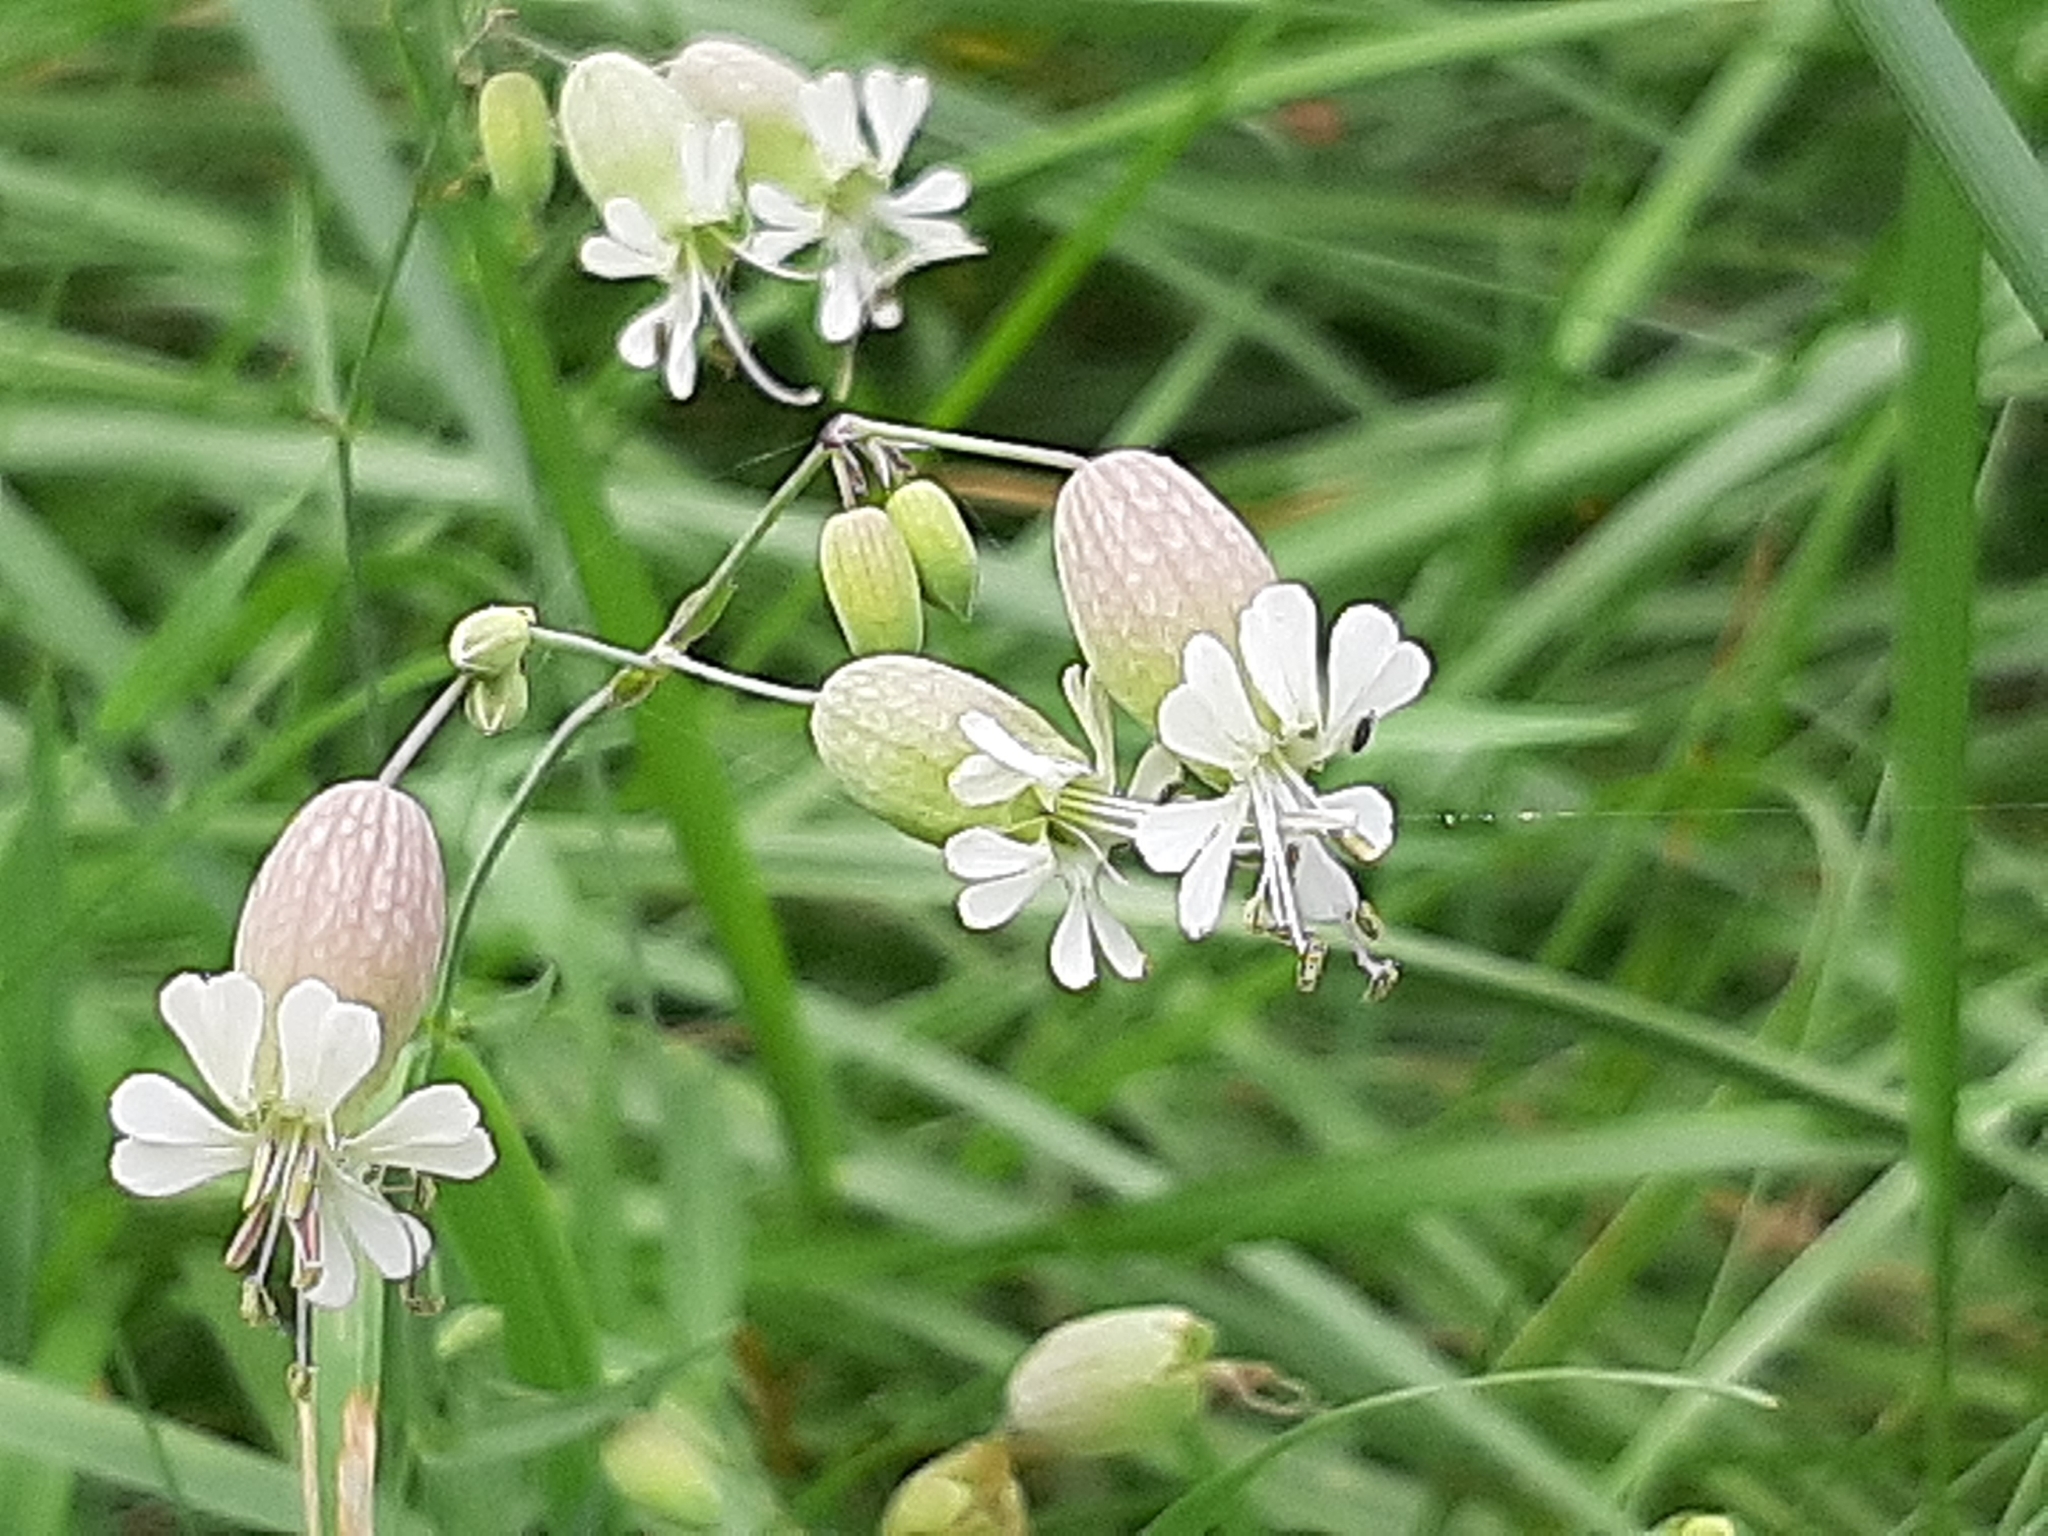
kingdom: Plantae
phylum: Tracheophyta
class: Magnoliopsida
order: Caryophyllales
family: Caryophyllaceae
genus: Silene
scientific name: Silene vulgaris
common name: Bladder campion
